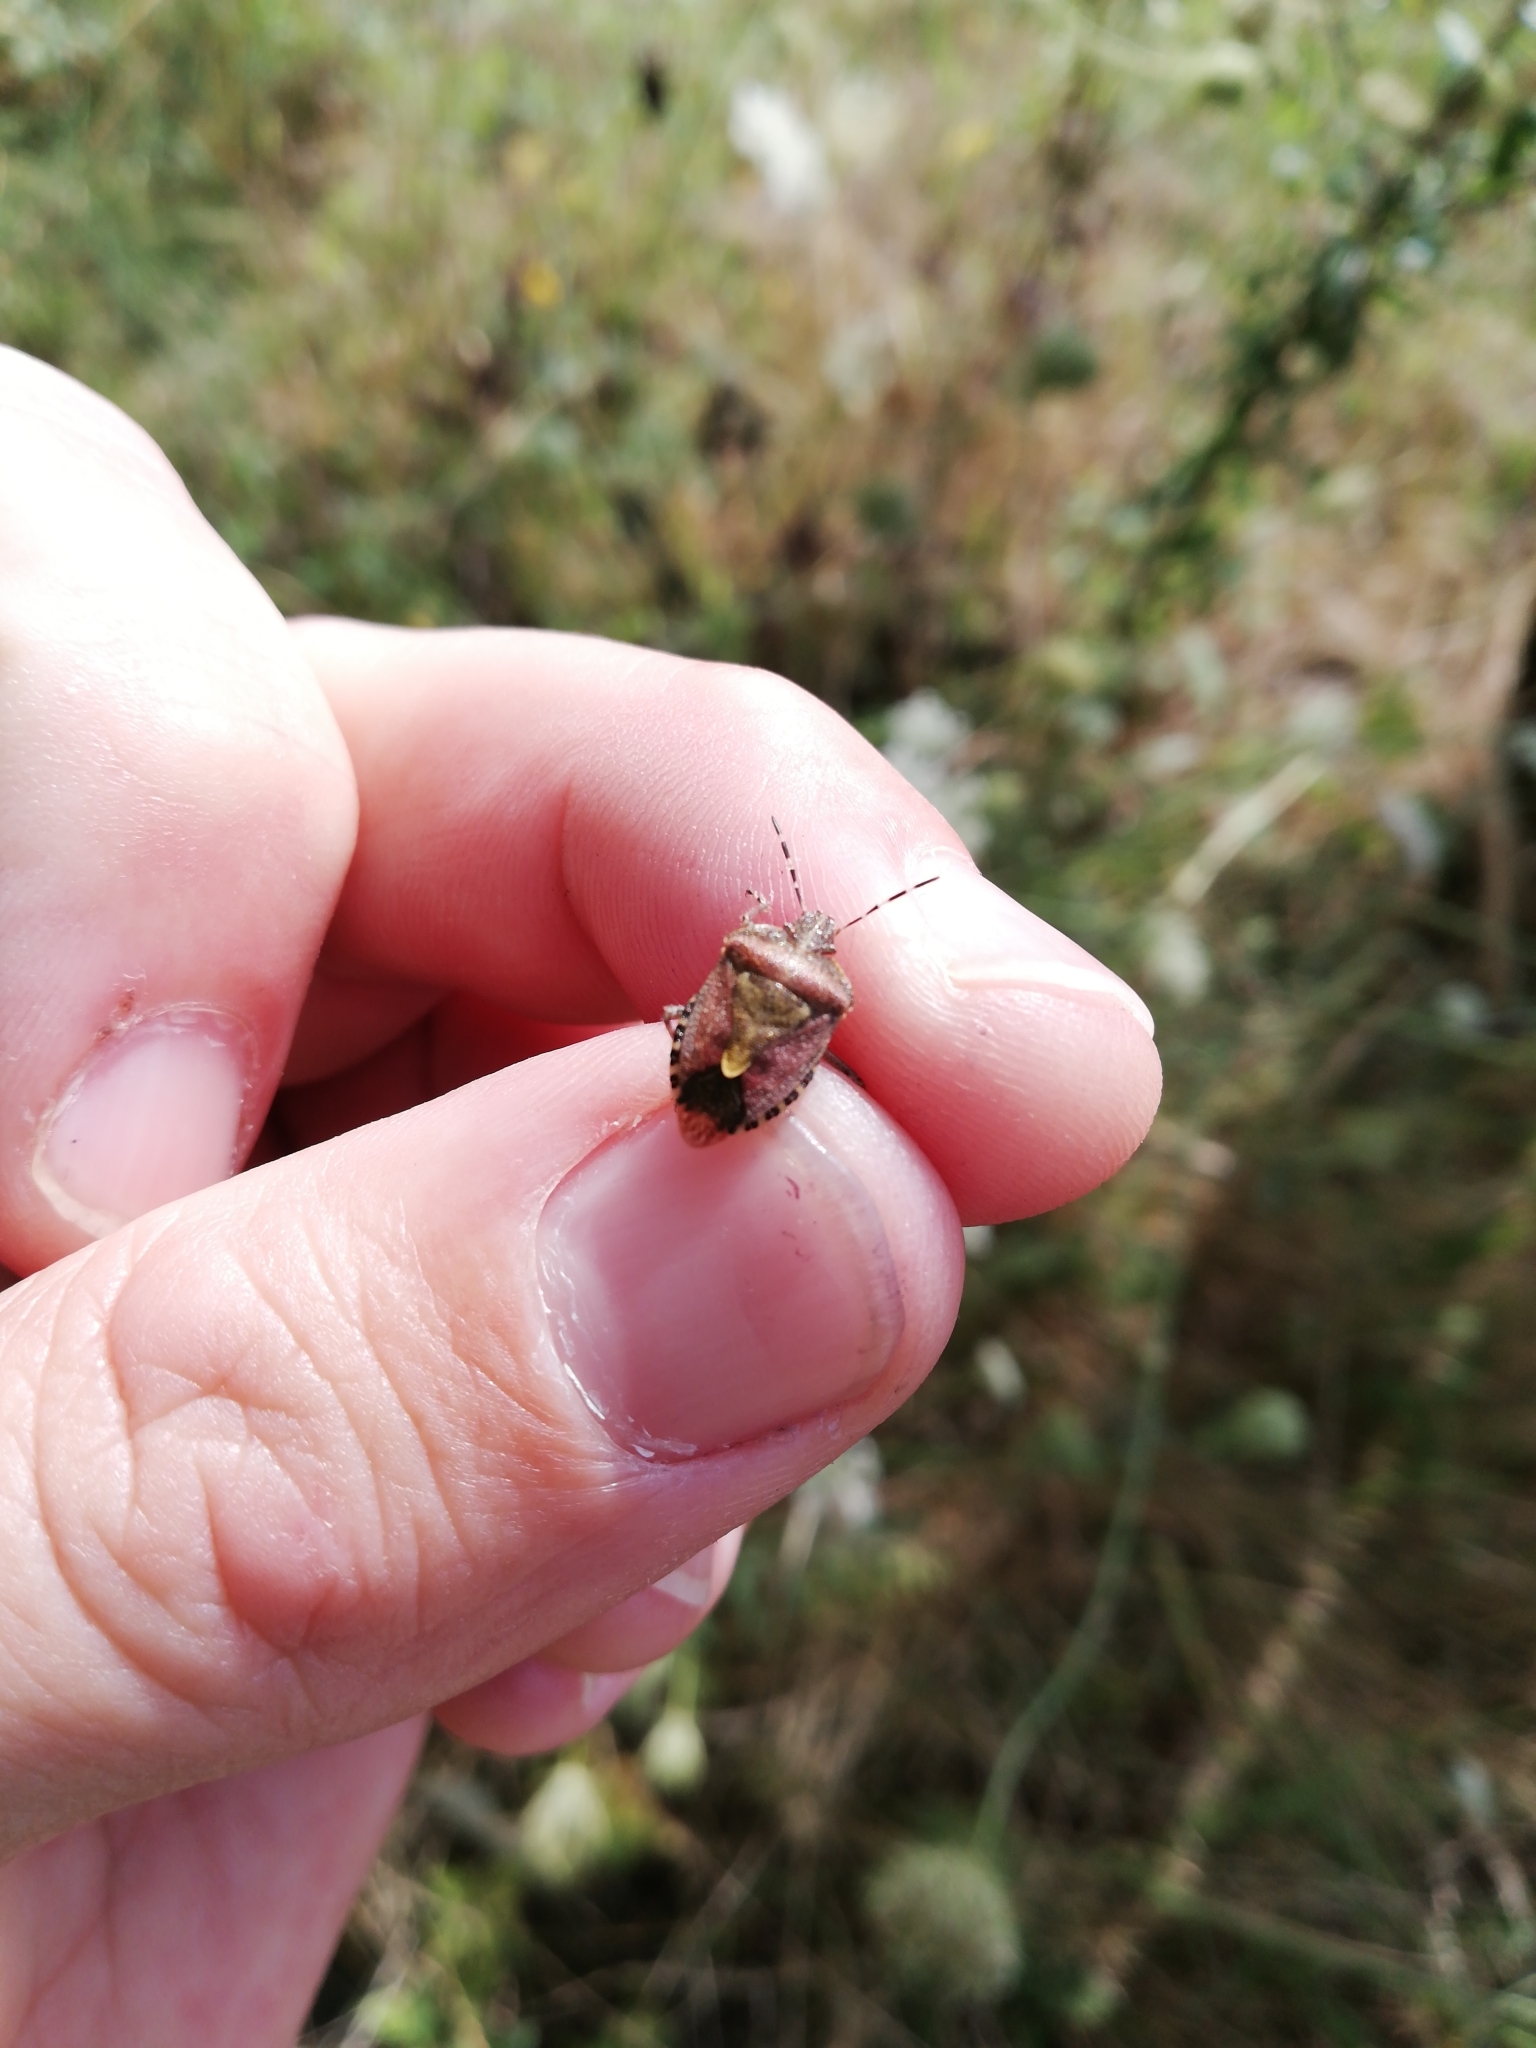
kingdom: Animalia
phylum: Arthropoda
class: Insecta
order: Hemiptera
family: Pentatomidae
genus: Dolycoris
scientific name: Dolycoris baccarum
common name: Sloe bug
